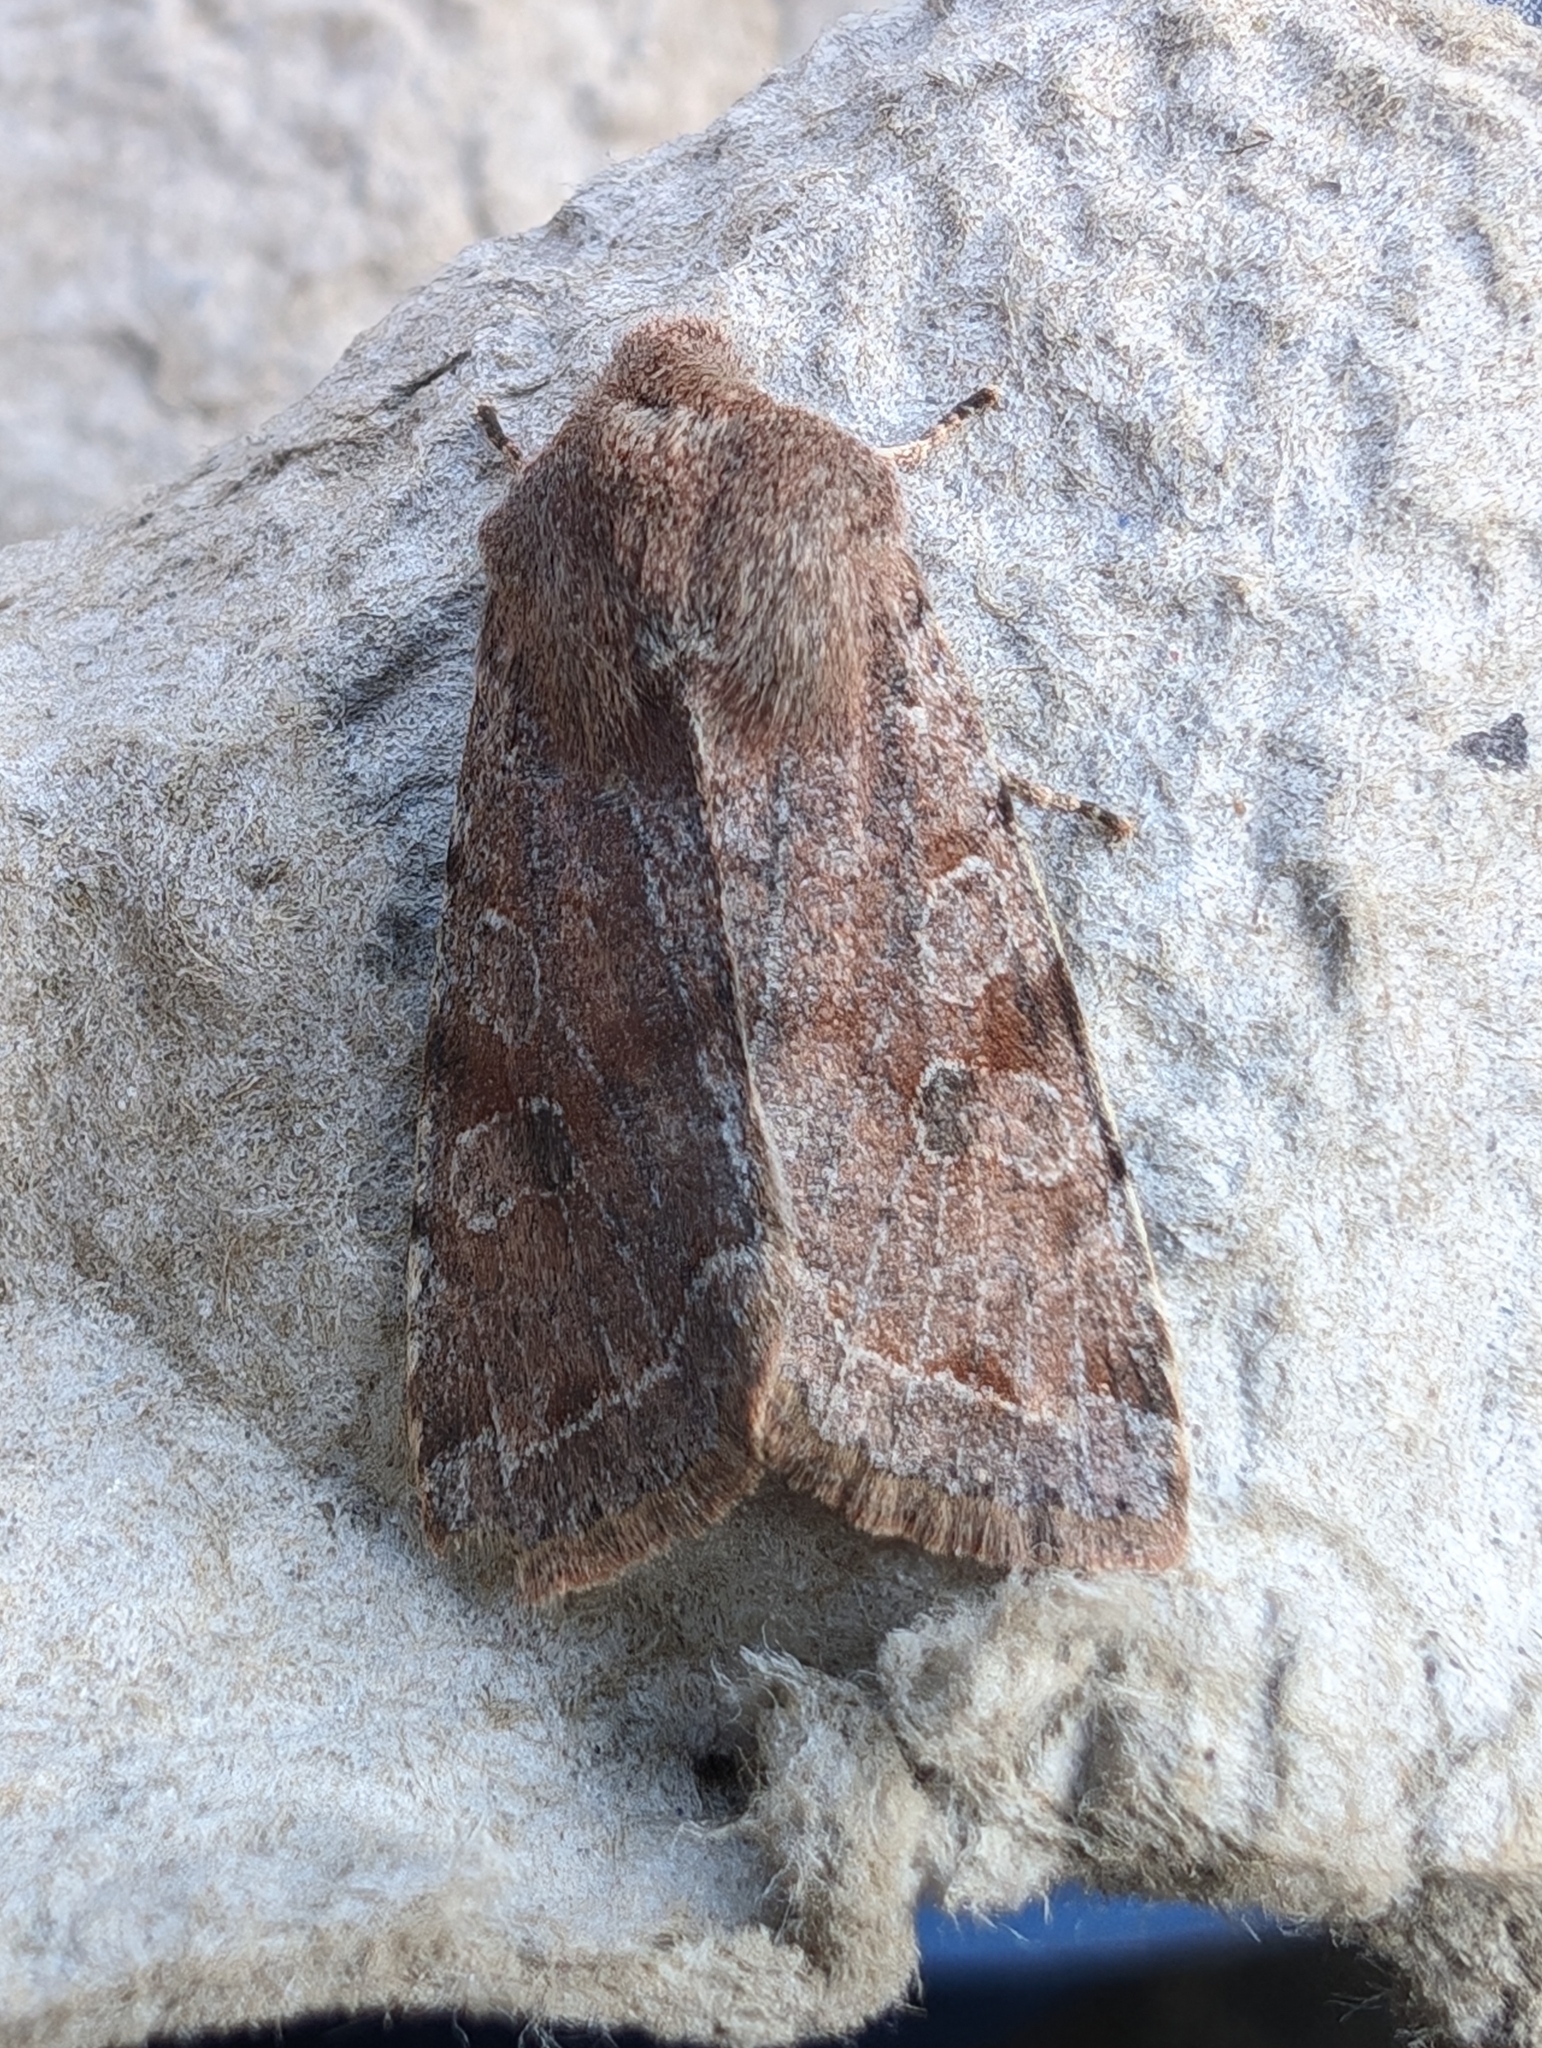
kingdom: Animalia
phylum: Arthropoda
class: Insecta
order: Lepidoptera
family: Noctuidae
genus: Orthosia
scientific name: Orthosia incerta
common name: Clouded drab
